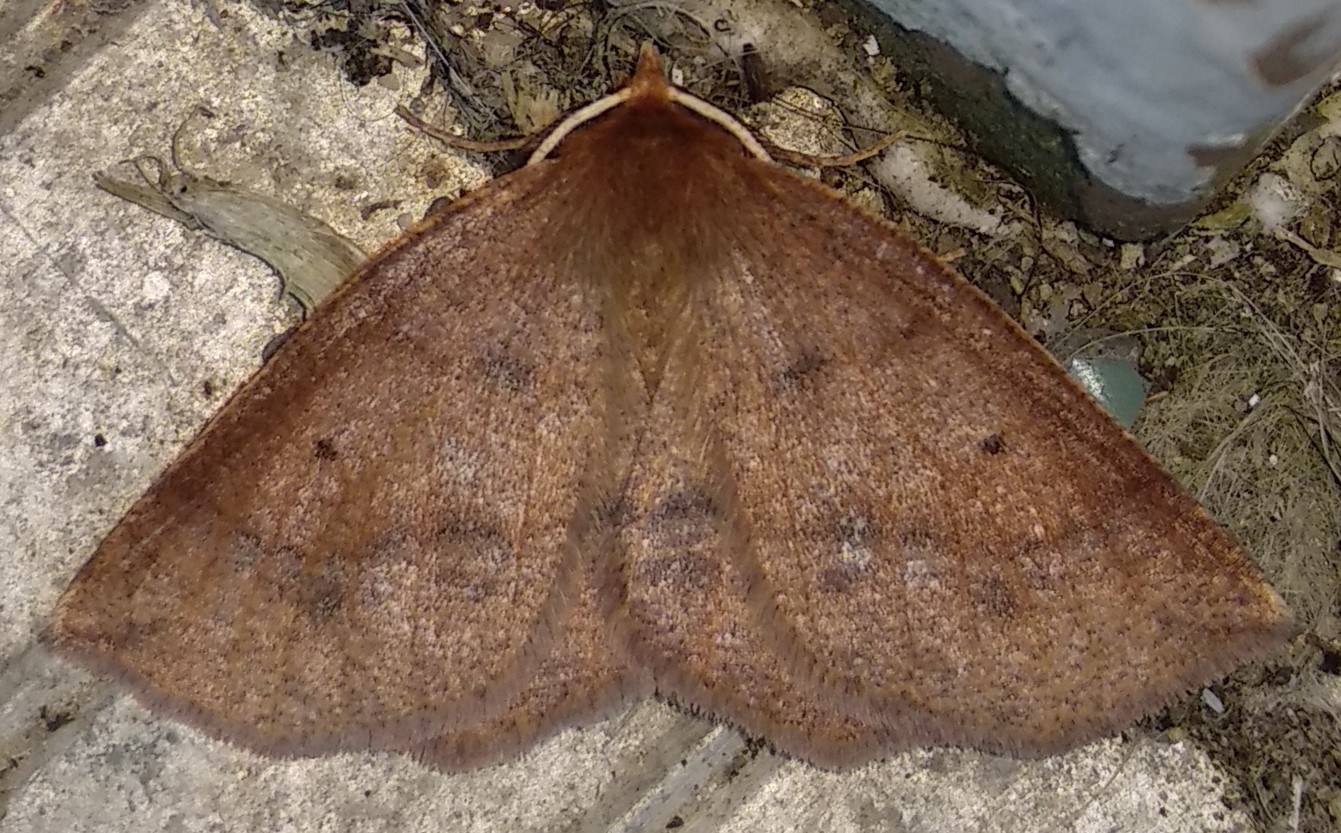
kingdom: Animalia
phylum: Arthropoda
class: Insecta
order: Lepidoptera
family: Geometridae
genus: Metarranthis
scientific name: Metarranthis duaria
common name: Ruddy metarranthis moth
